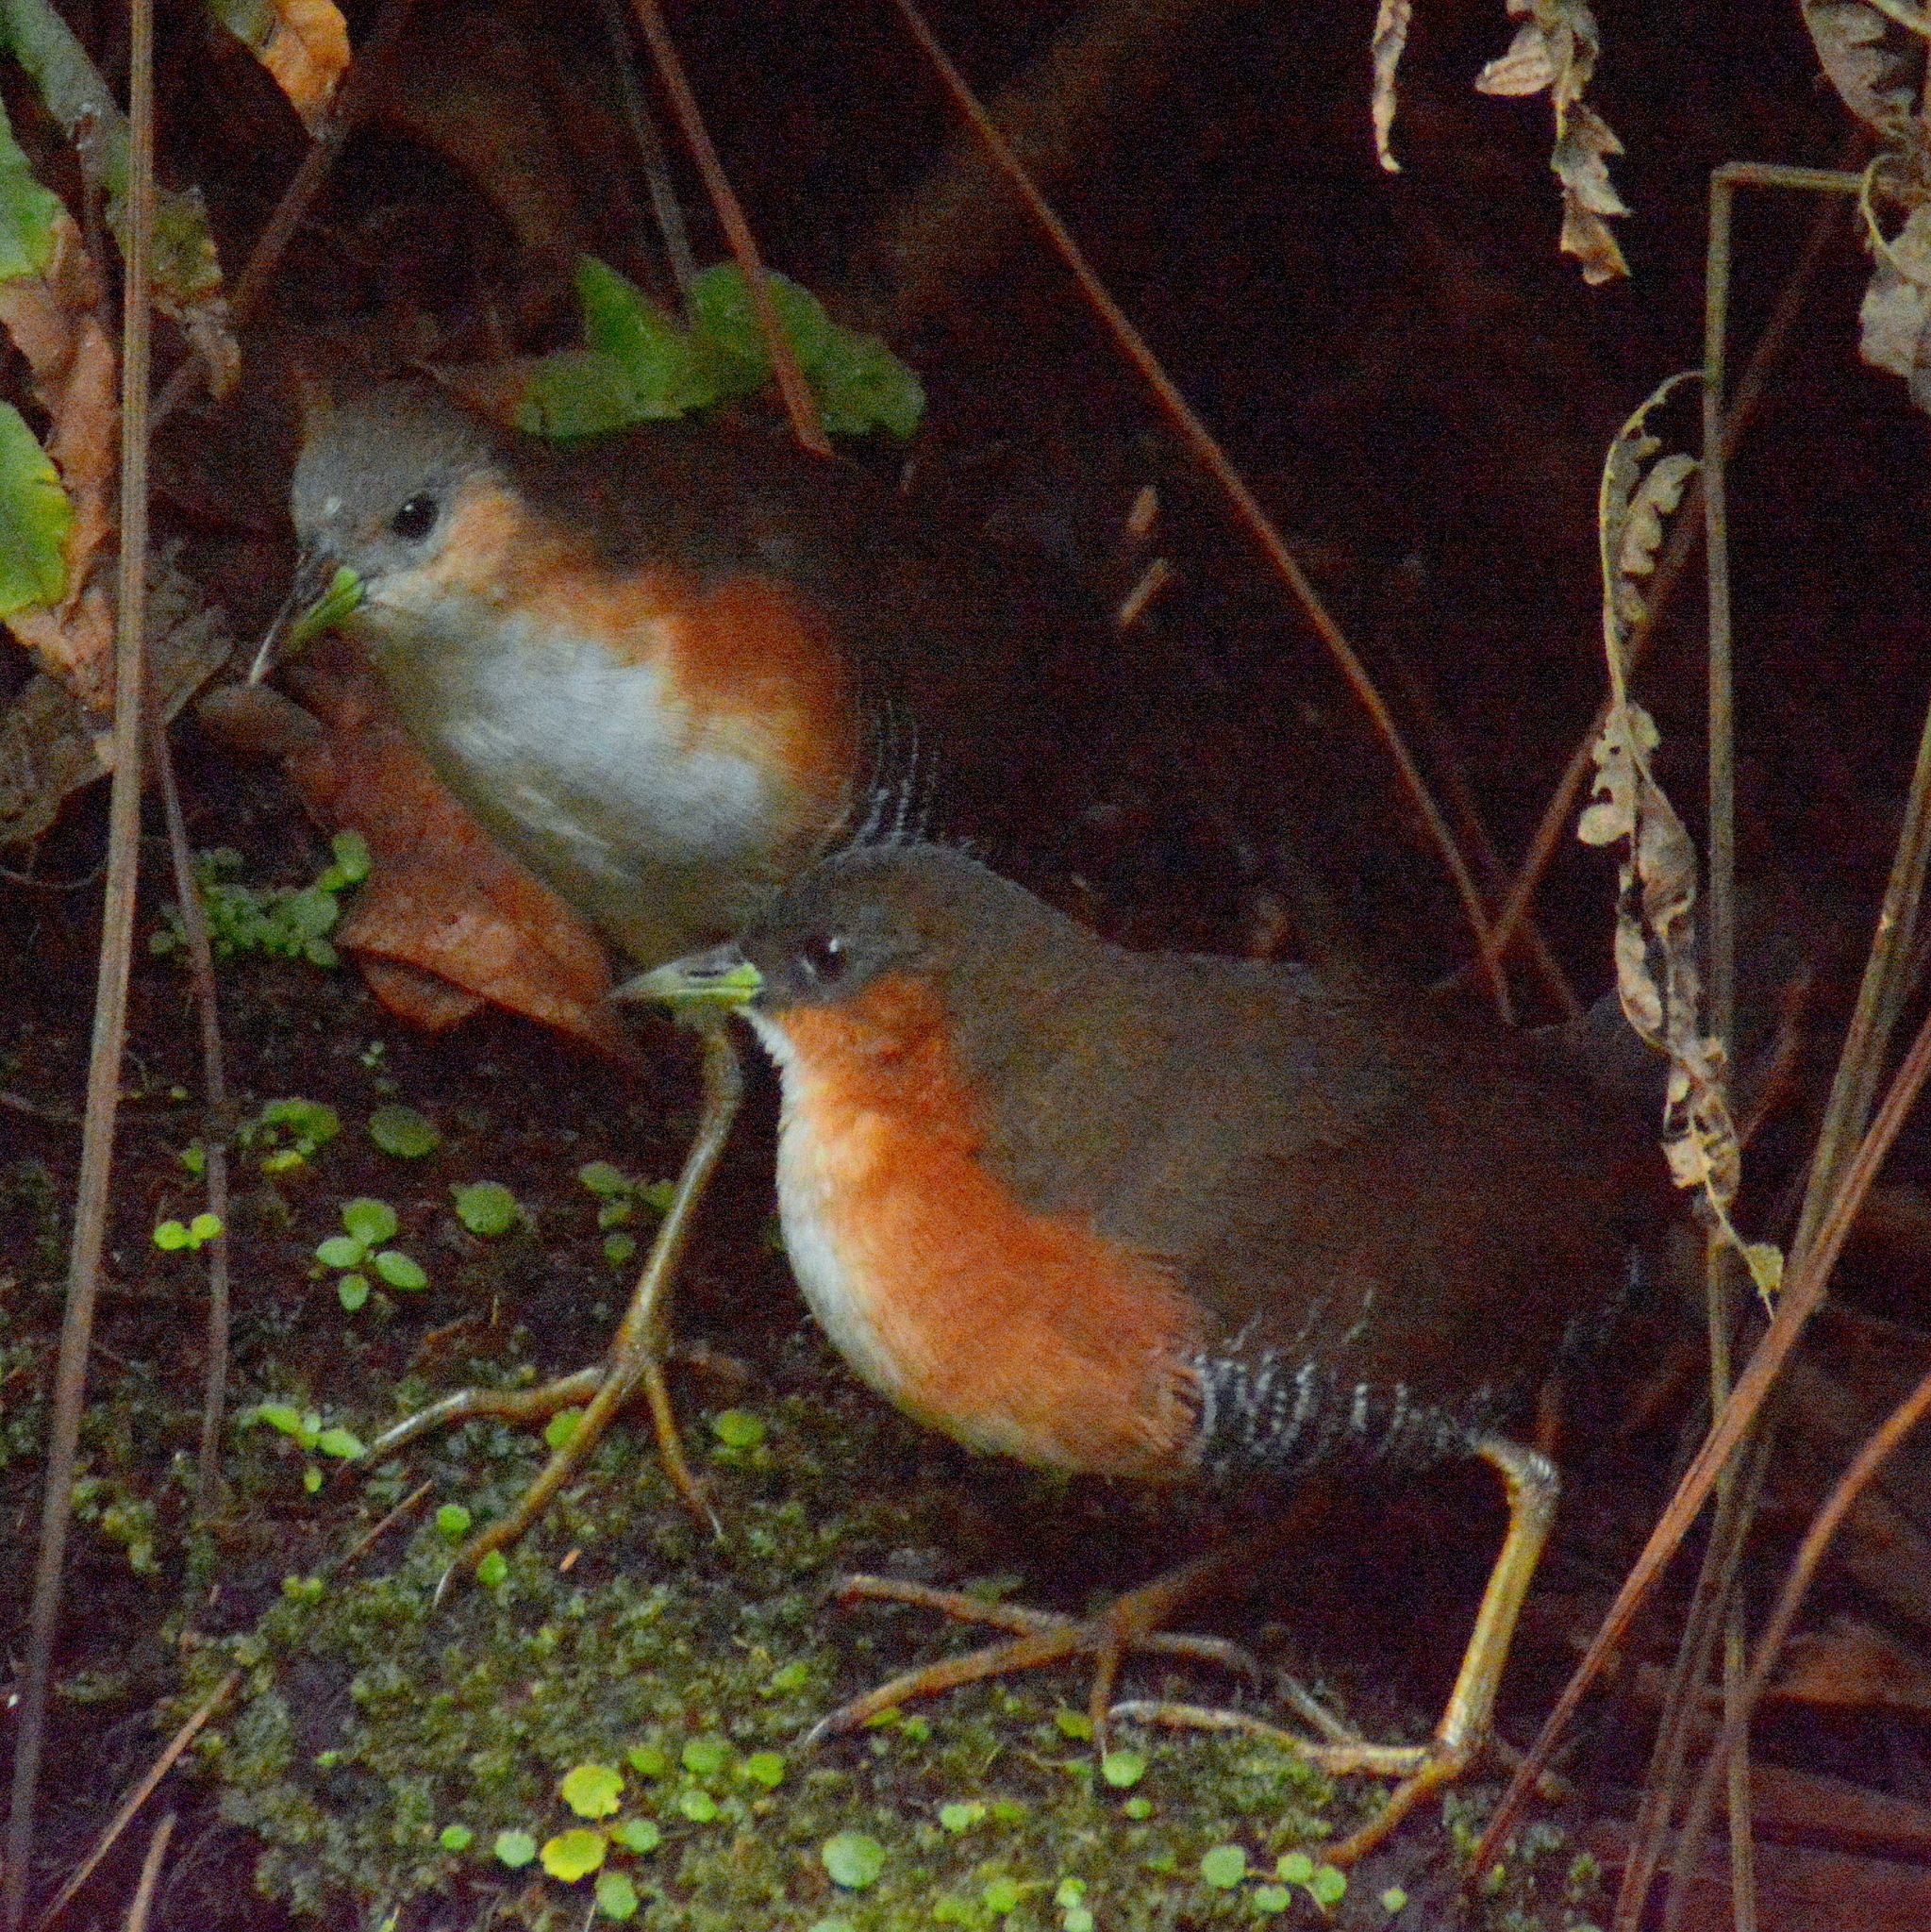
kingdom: Animalia
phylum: Chordata
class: Aves
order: Gruiformes
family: Rallidae
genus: Laterallus
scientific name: Laterallus melanophaius
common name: Rufous-sided crake
